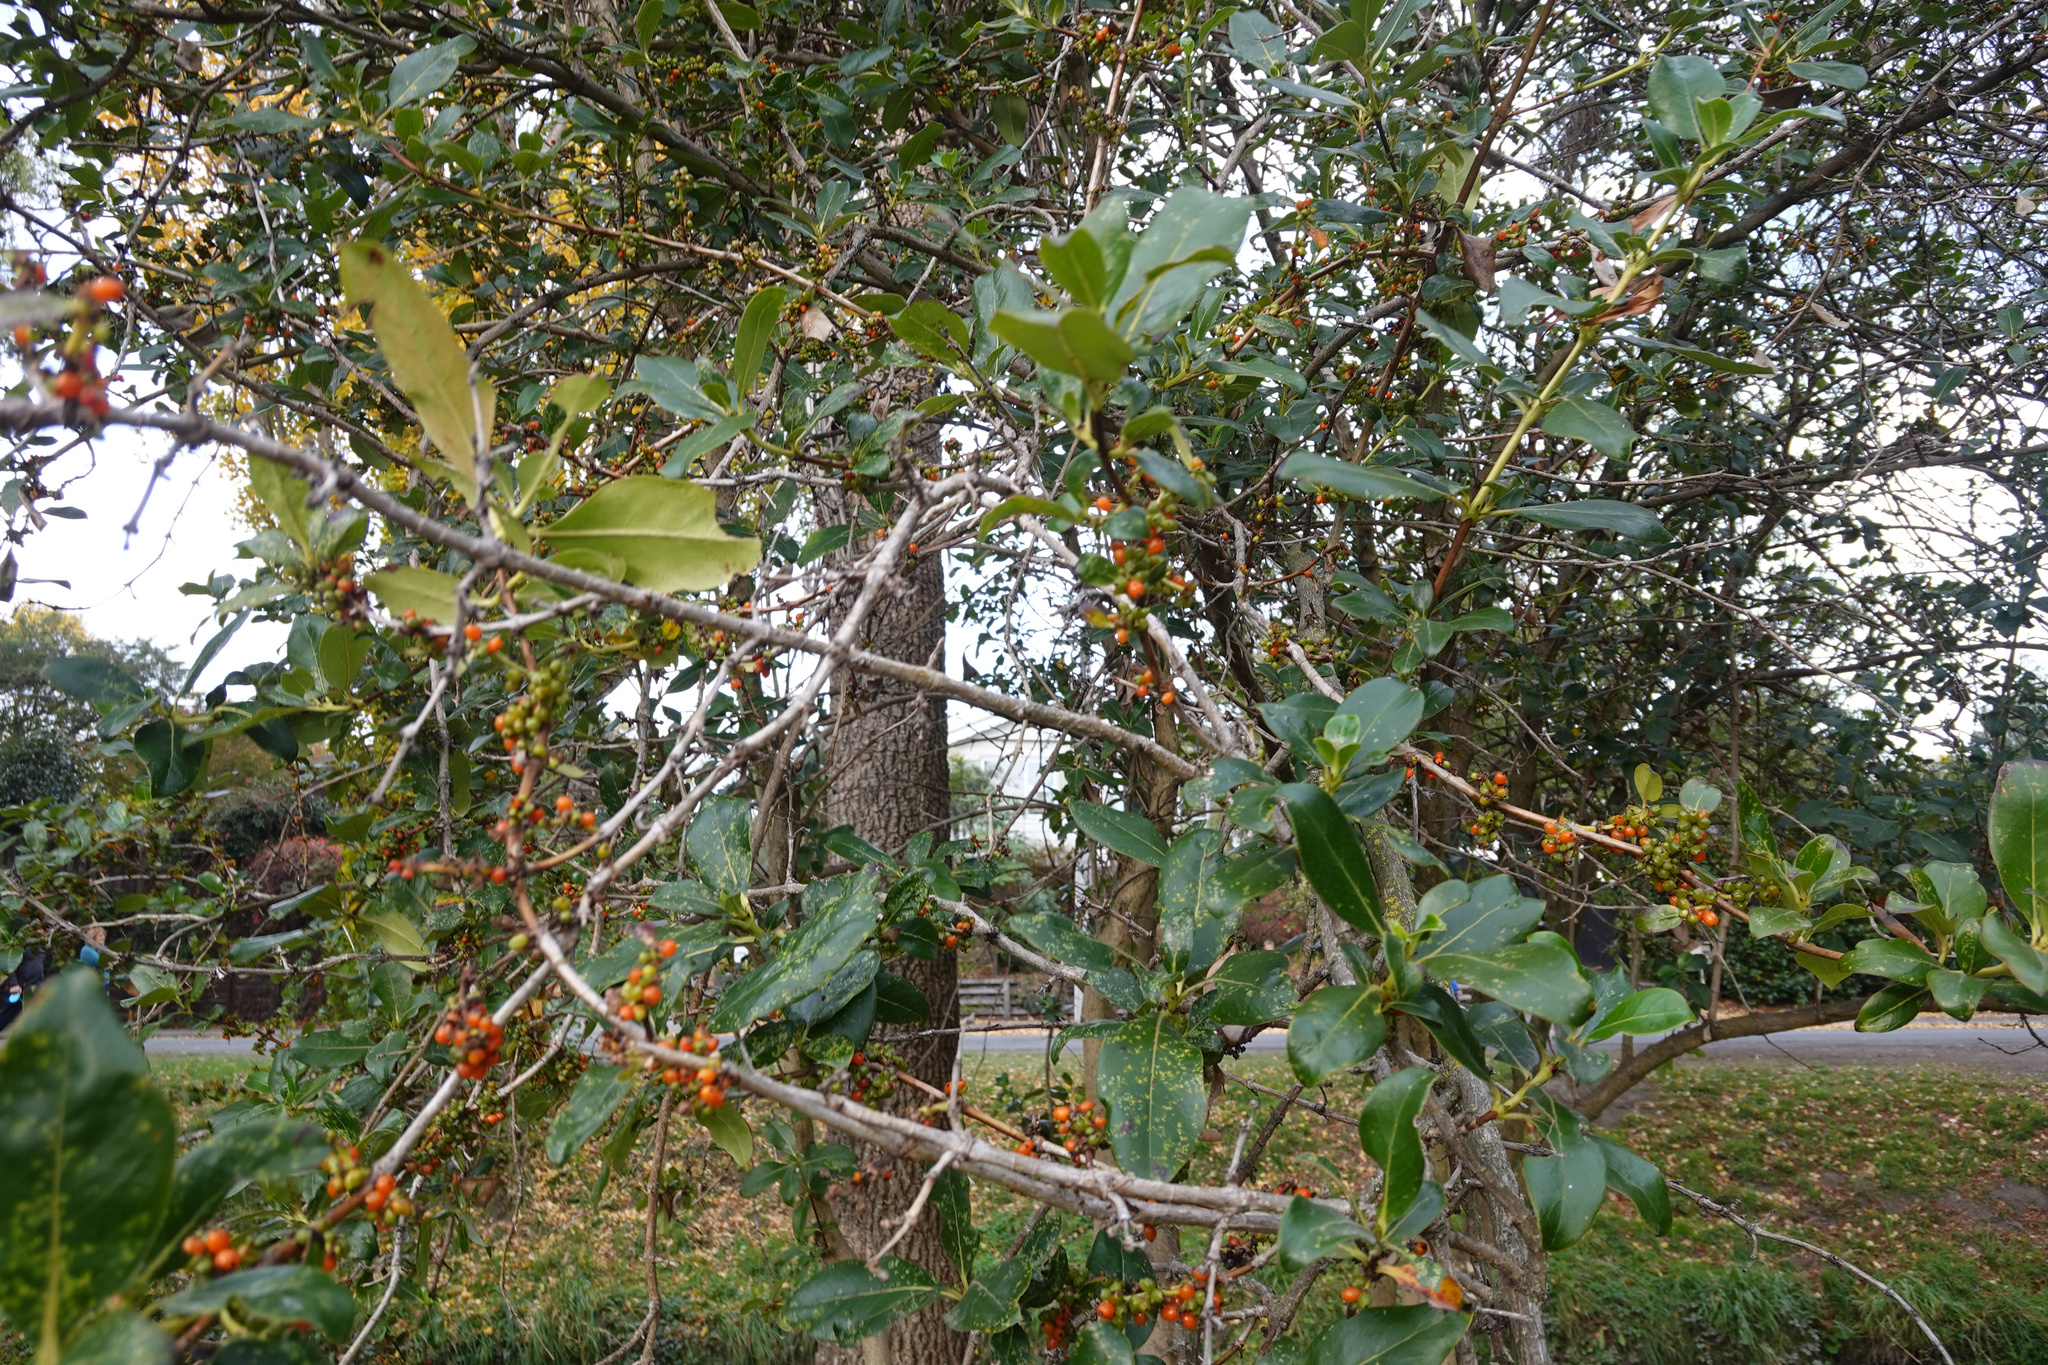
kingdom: Plantae
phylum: Tracheophyta
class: Magnoliopsida
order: Gentianales
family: Rubiaceae
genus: Coprosma
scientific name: Coprosma robusta
